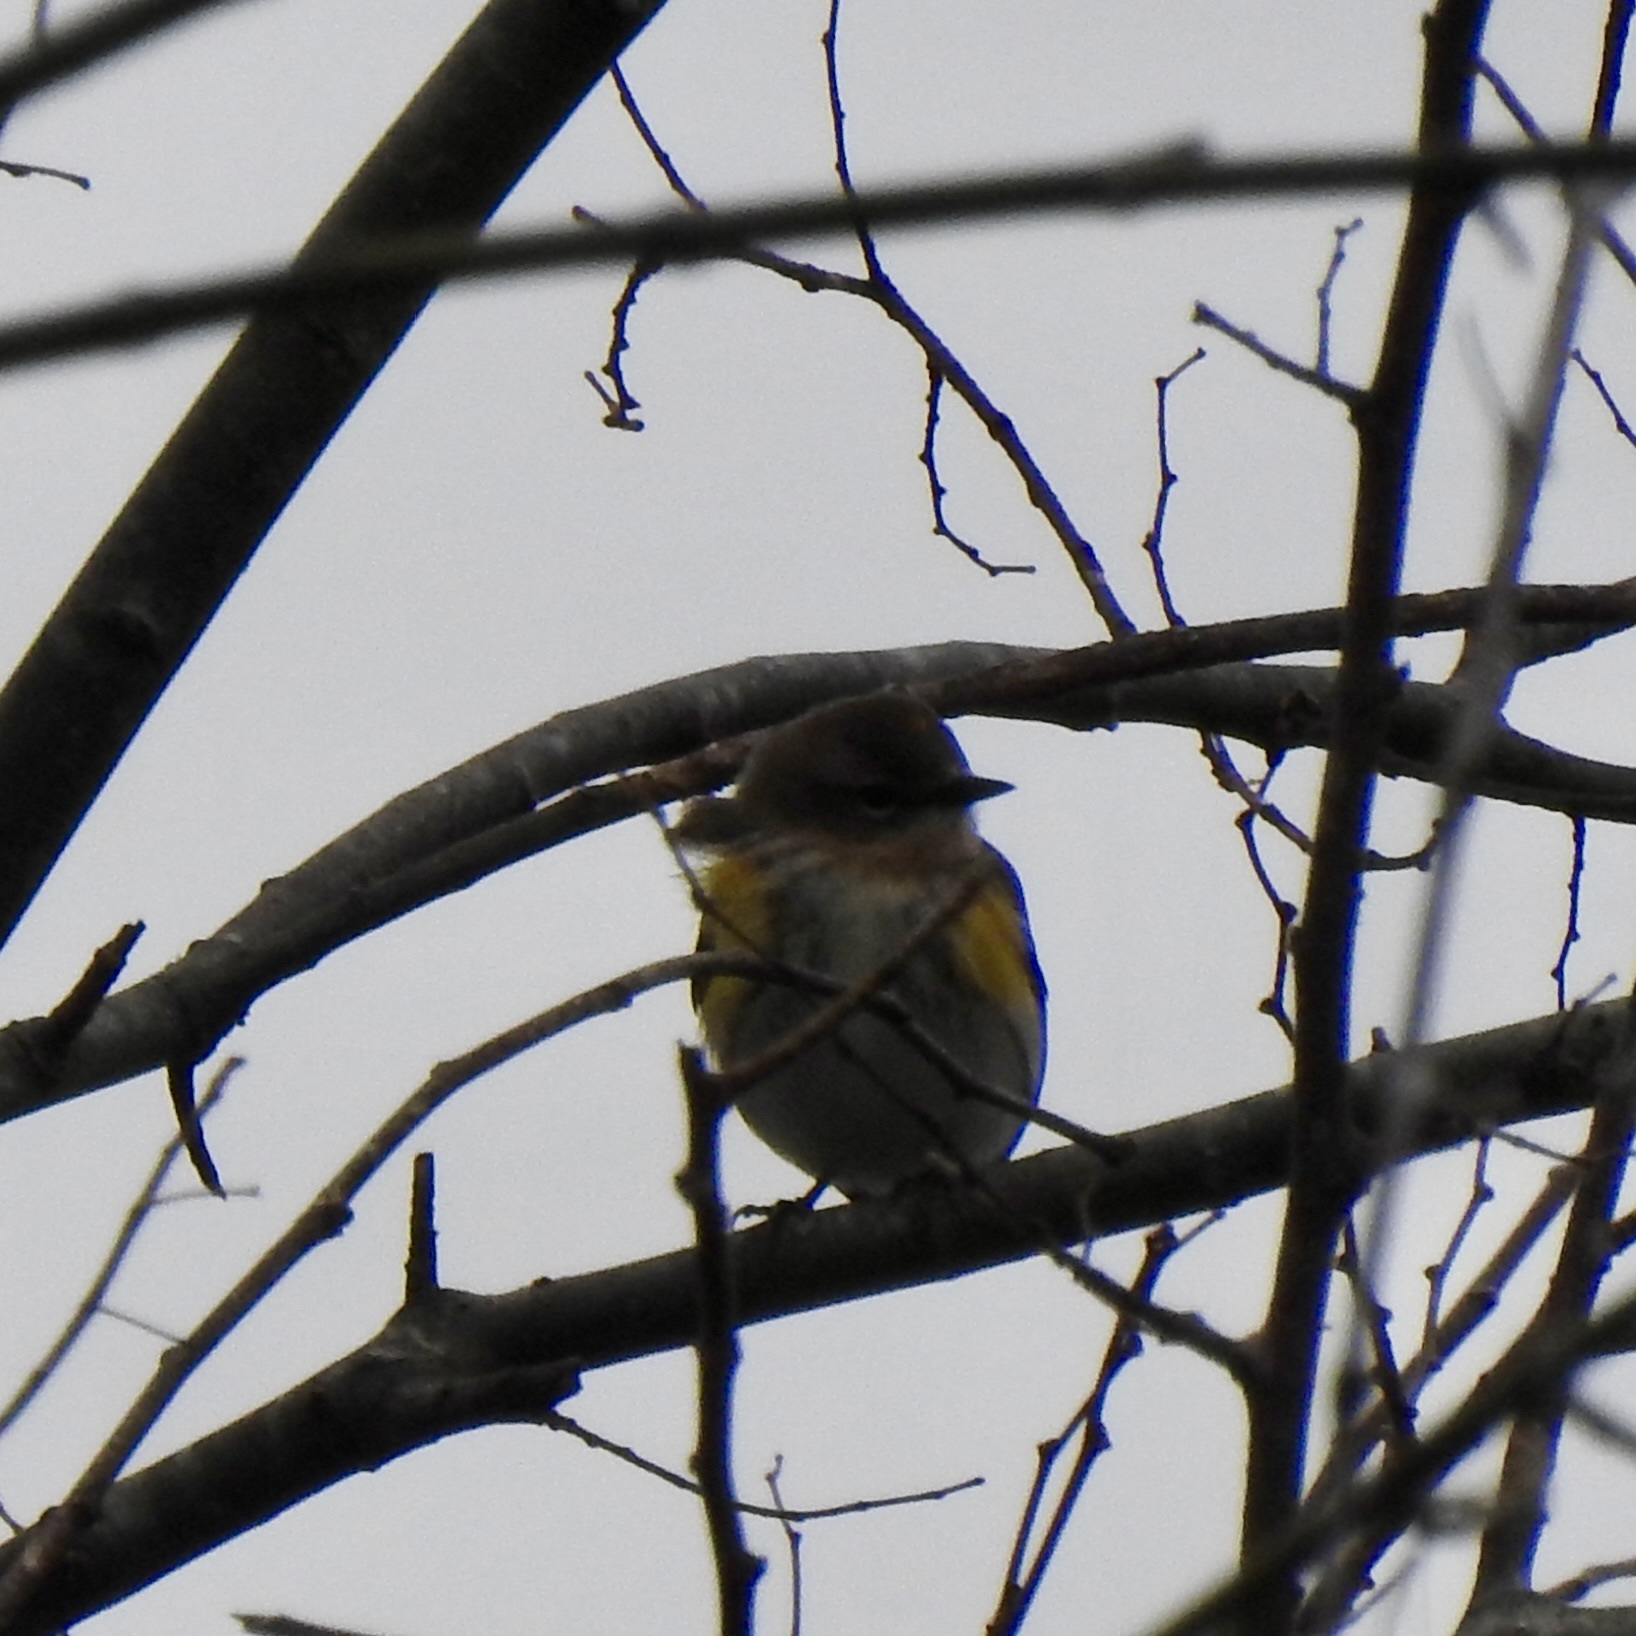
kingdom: Animalia
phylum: Chordata
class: Aves
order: Passeriformes
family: Parulidae
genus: Setophaga
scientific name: Setophaga coronata
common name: Myrtle warbler
